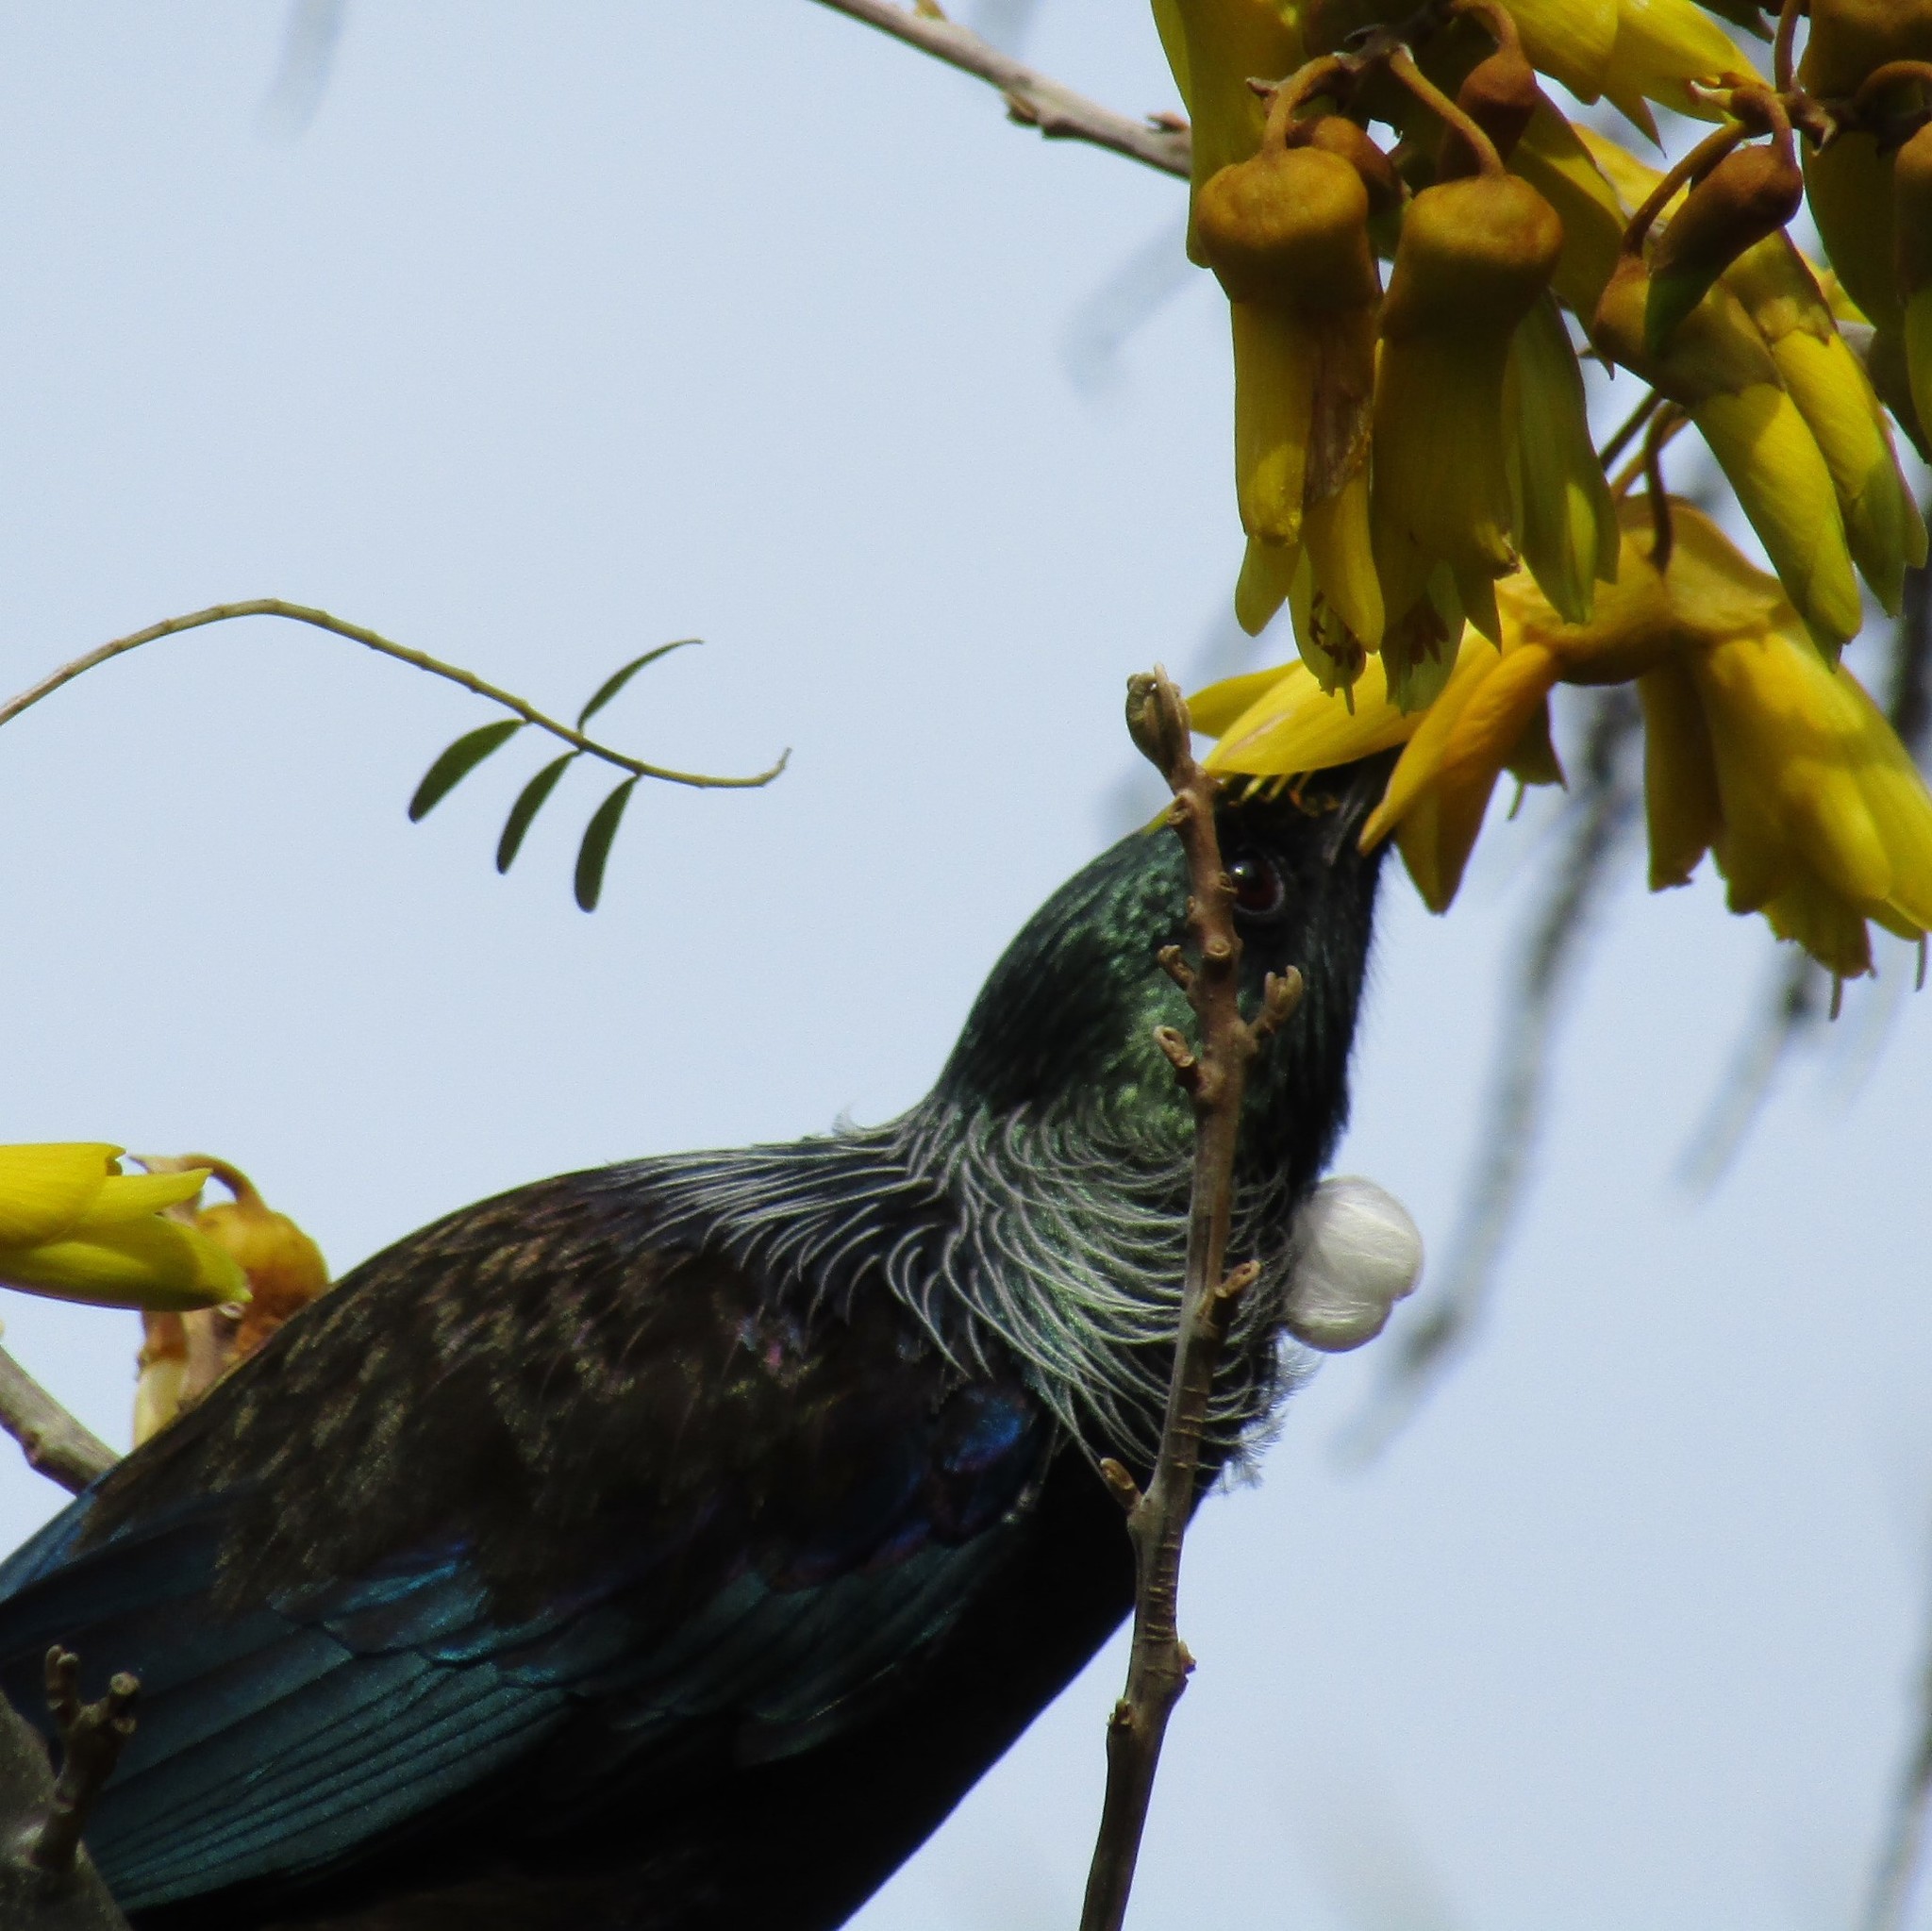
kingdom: Animalia
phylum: Chordata
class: Aves
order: Passeriformes
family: Meliphagidae
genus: Prosthemadera
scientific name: Prosthemadera novaeseelandiae
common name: Tui
